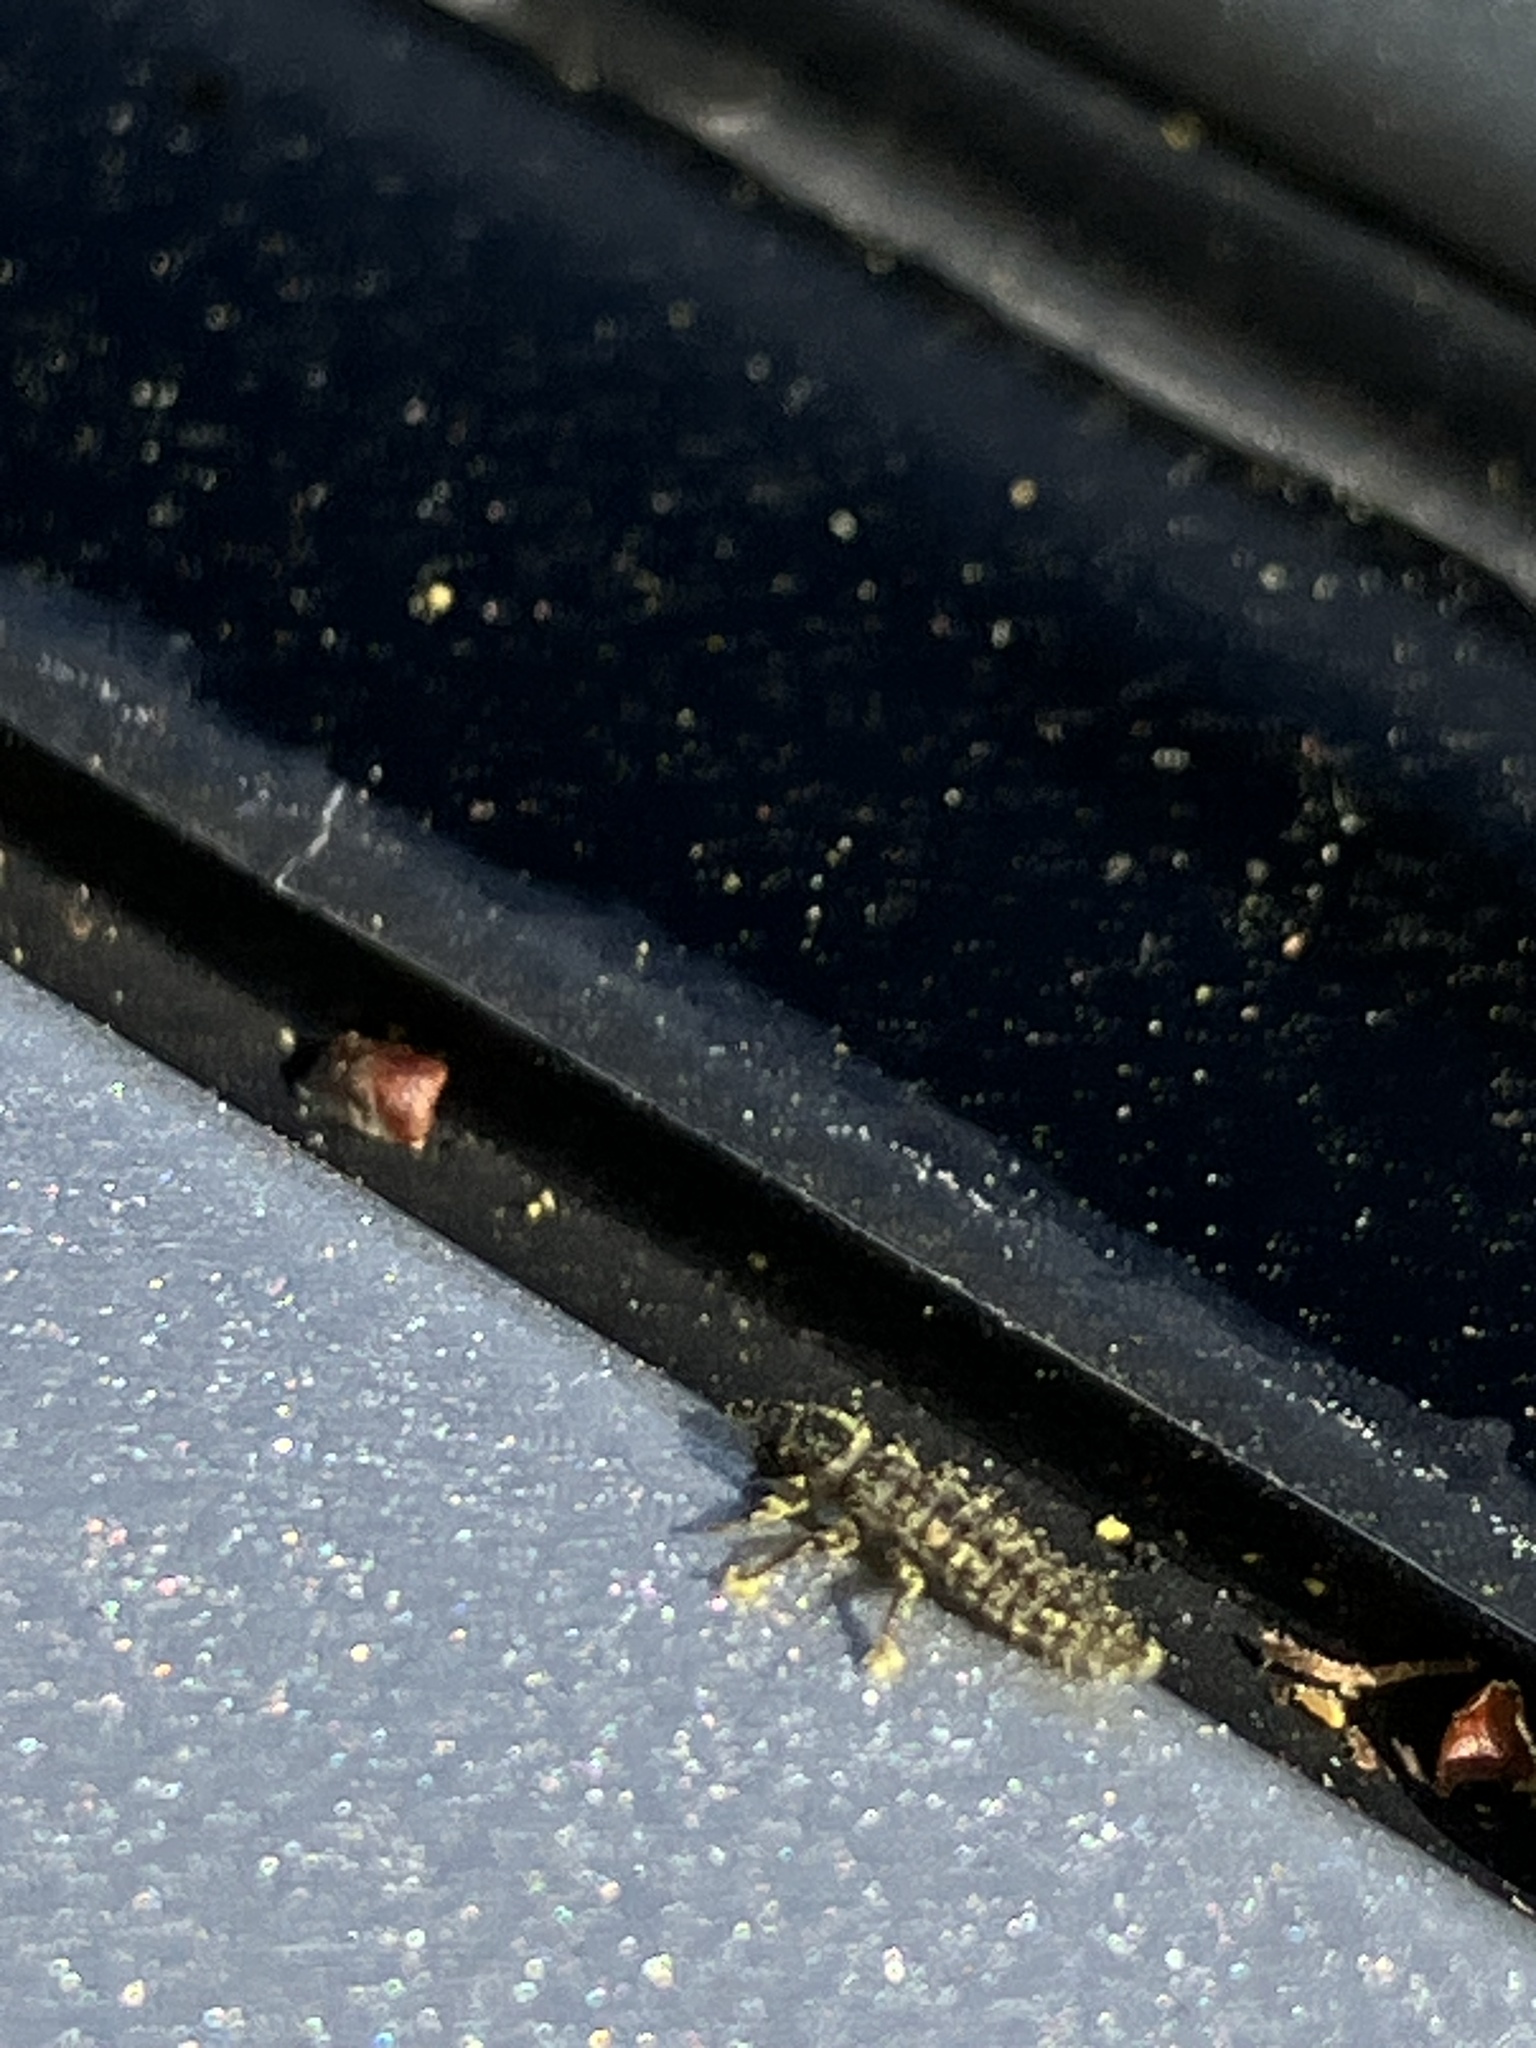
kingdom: Animalia
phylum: Arthropoda
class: Insecta
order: Coleoptera
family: Coccinellidae
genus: Harmonia
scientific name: Harmonia axyridis
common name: Harlequin ladybird
